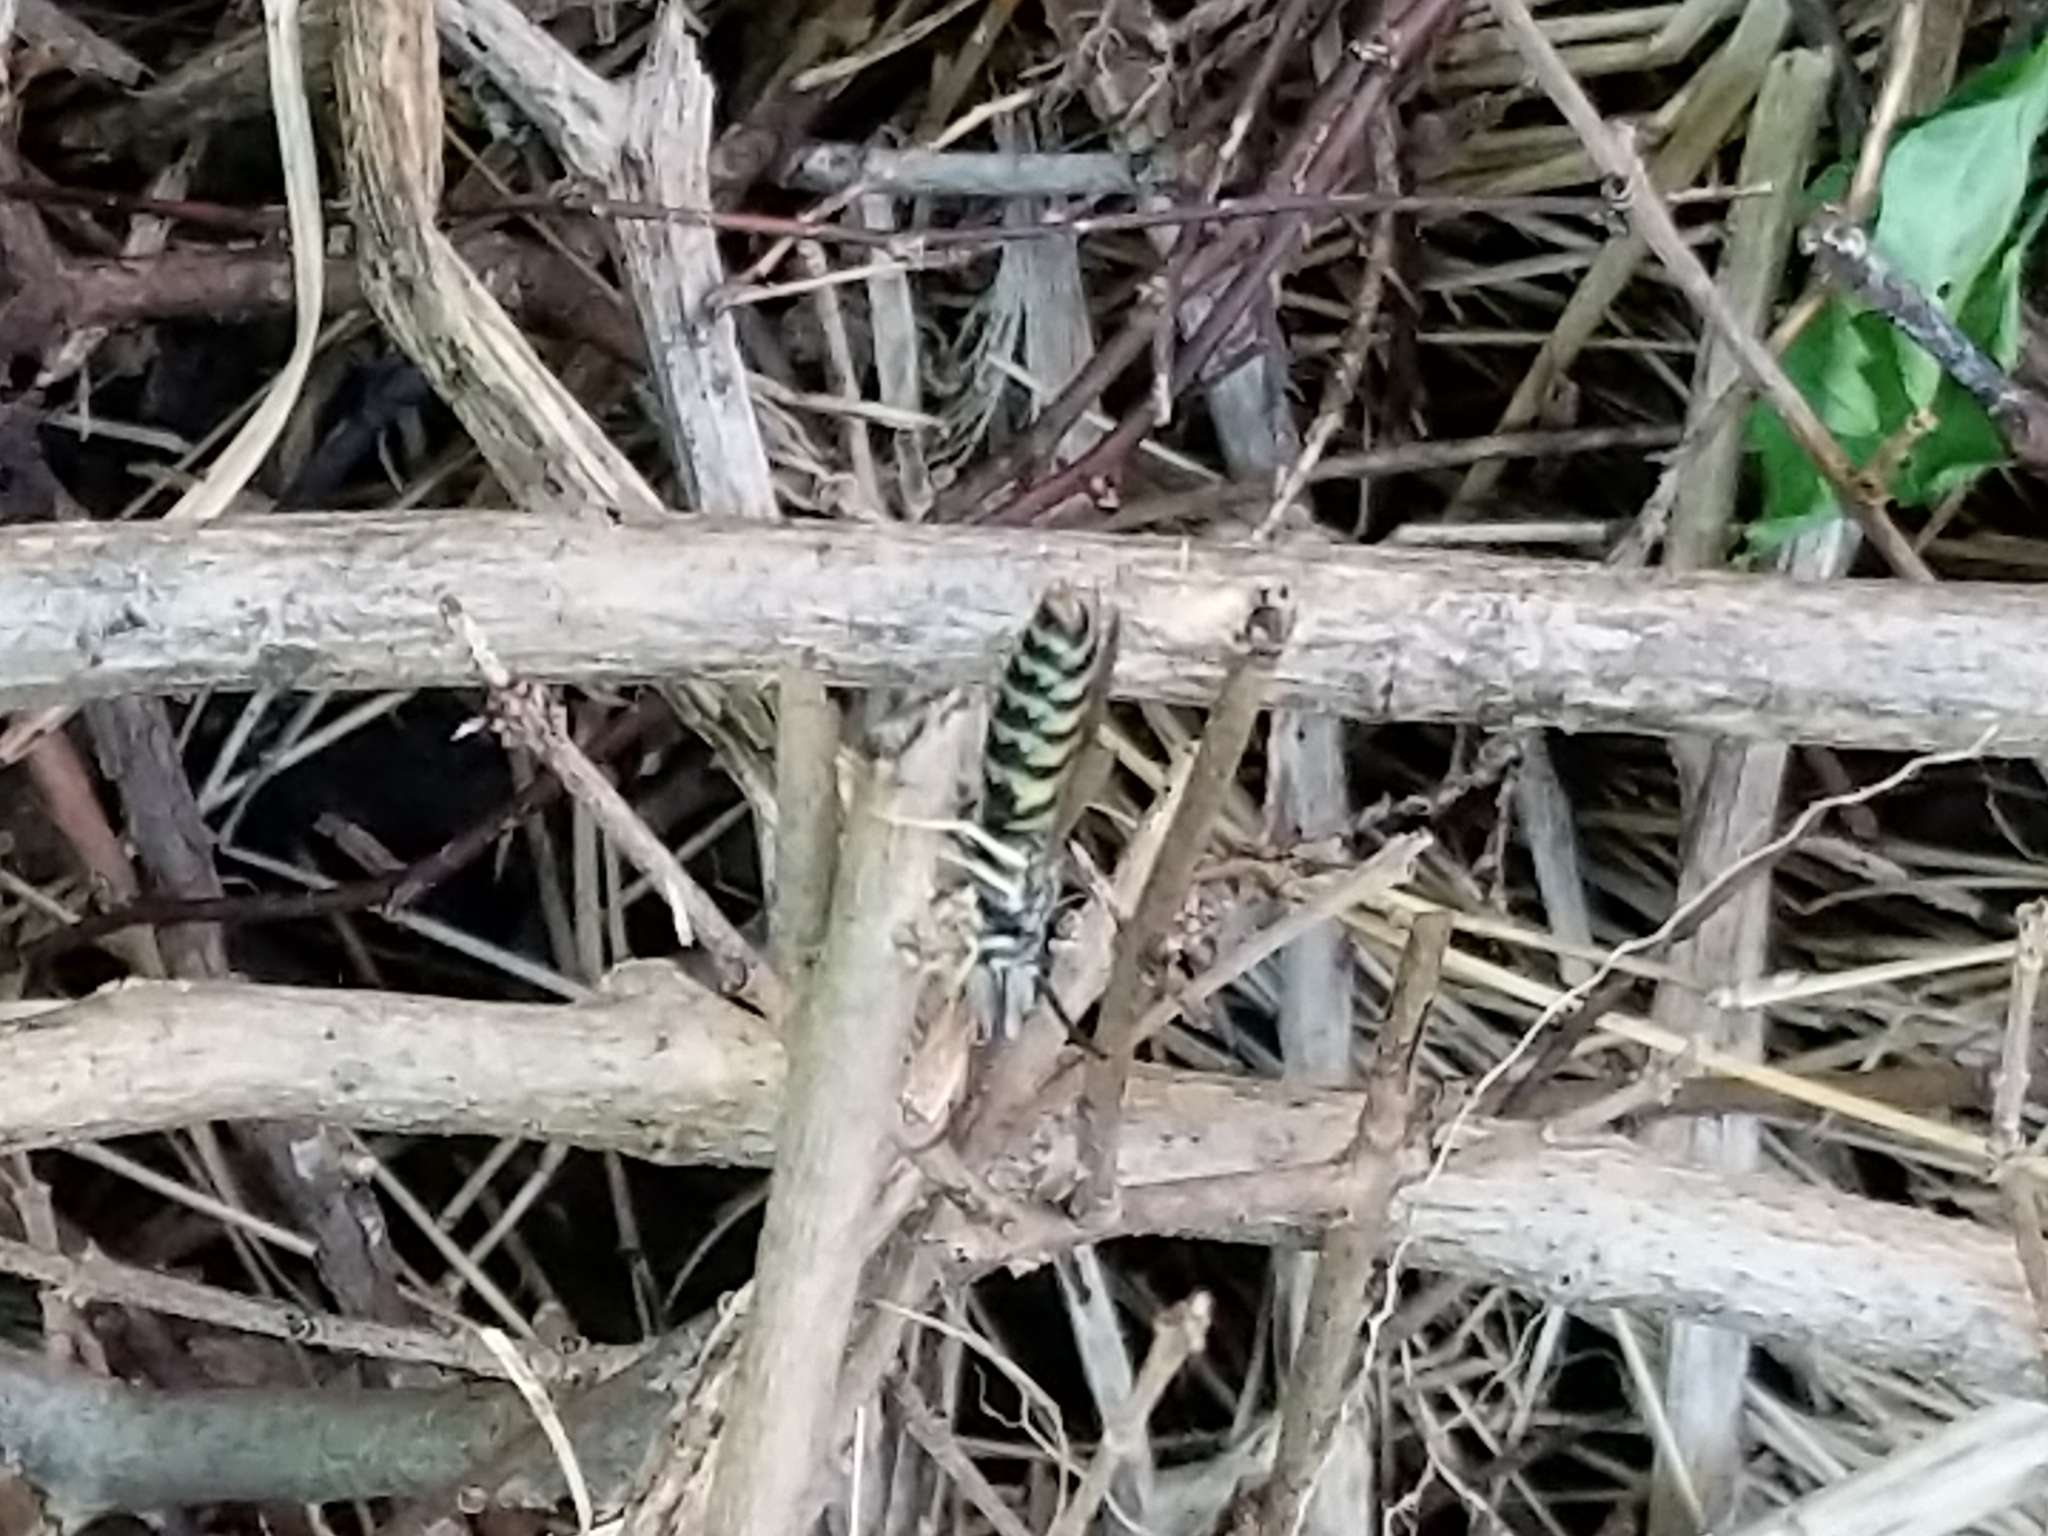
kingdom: Animalia
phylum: Arthropoda
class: Insecta
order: Hymenoptera
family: Vespidae
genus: Vespula
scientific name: Vespula
